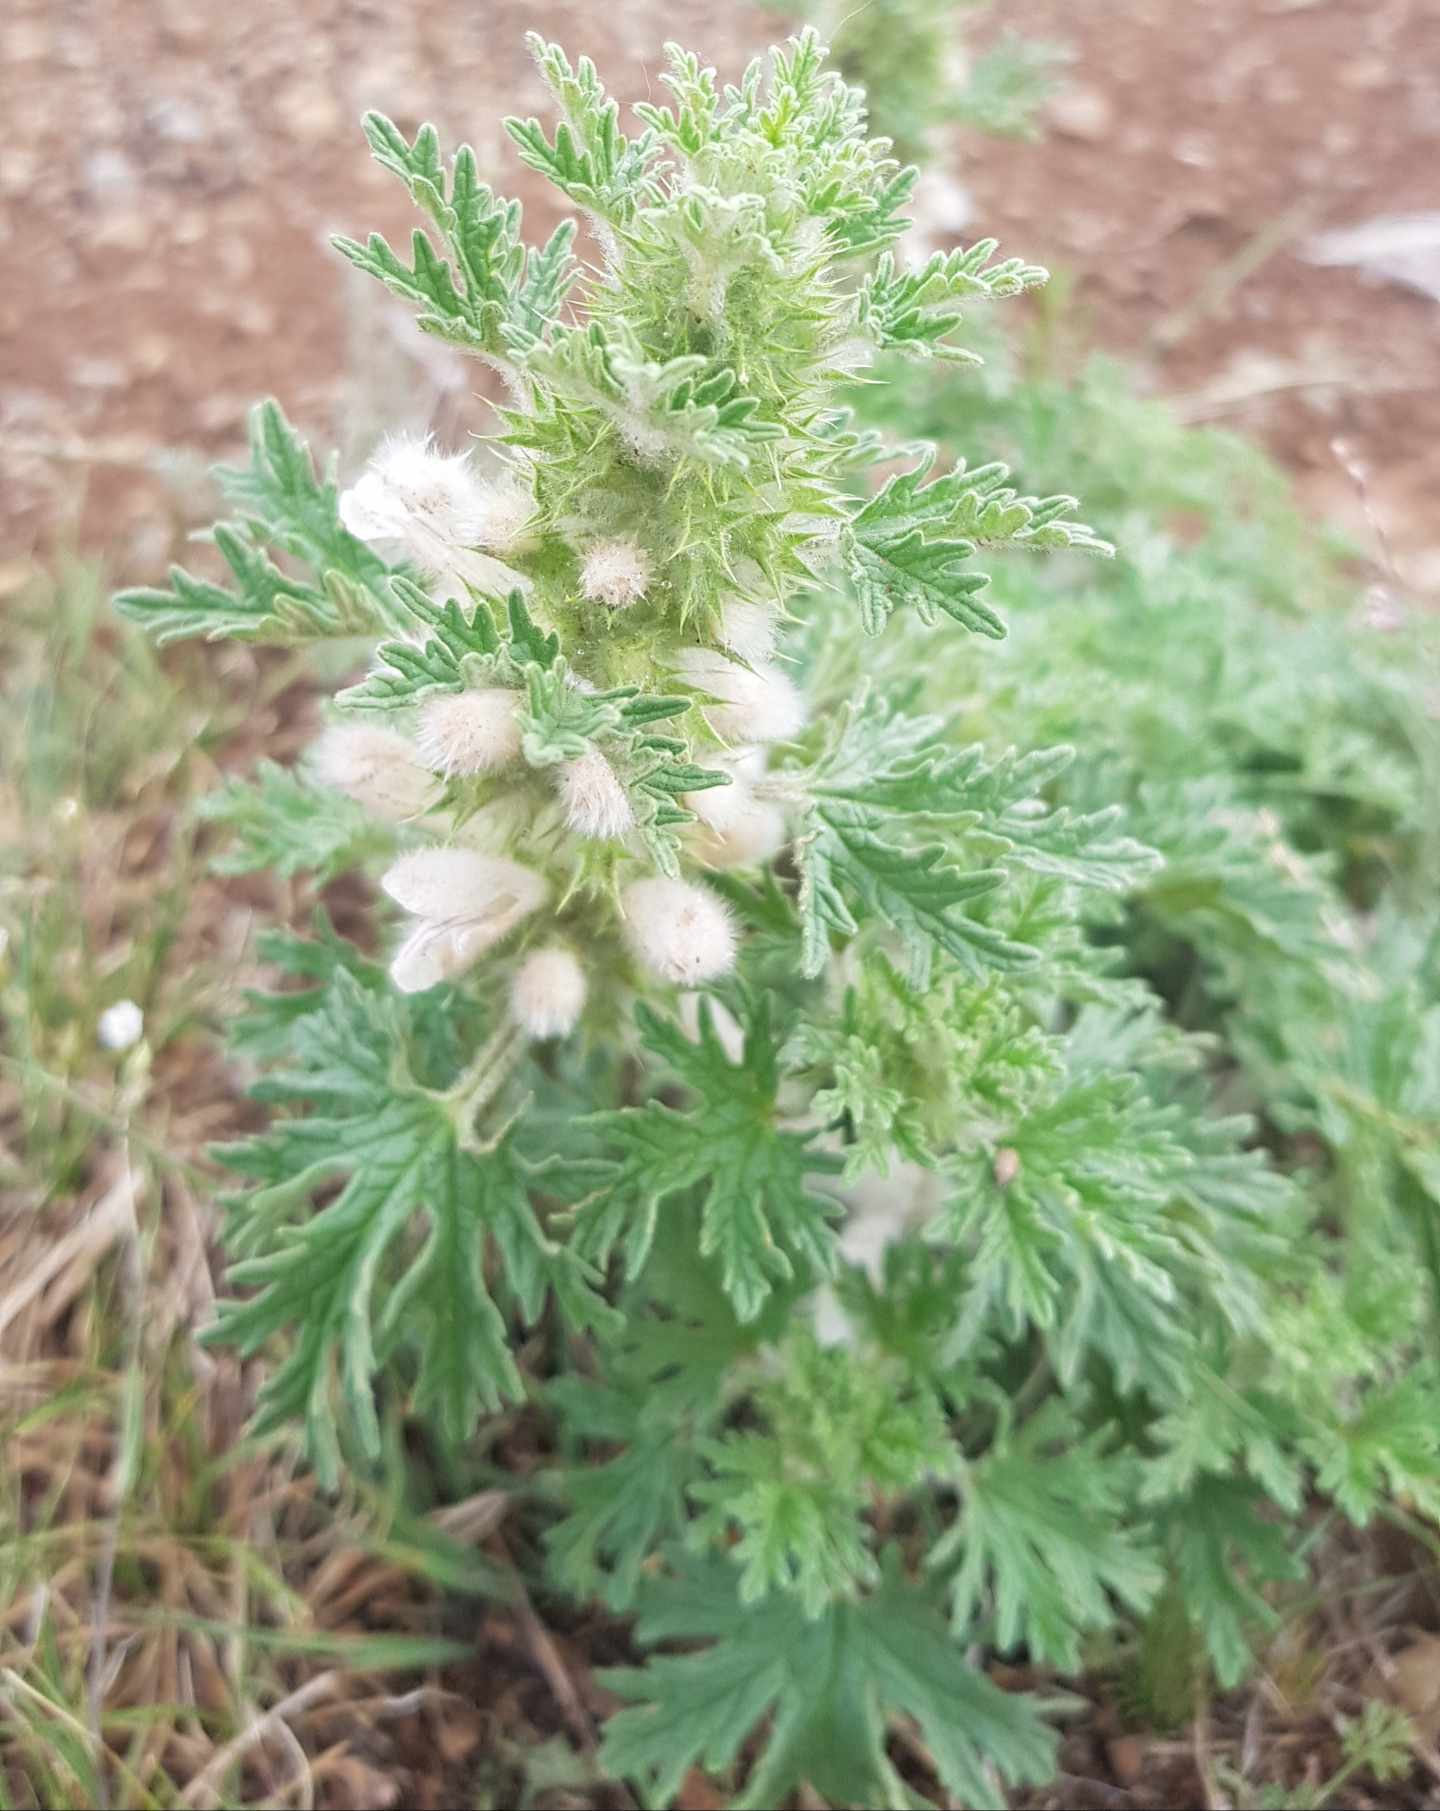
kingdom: Plantae
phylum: Tracheophyta
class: Magnoliopsida
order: Lamiales
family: Lamiaceae
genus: Panzerina
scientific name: Panzerina lanata
